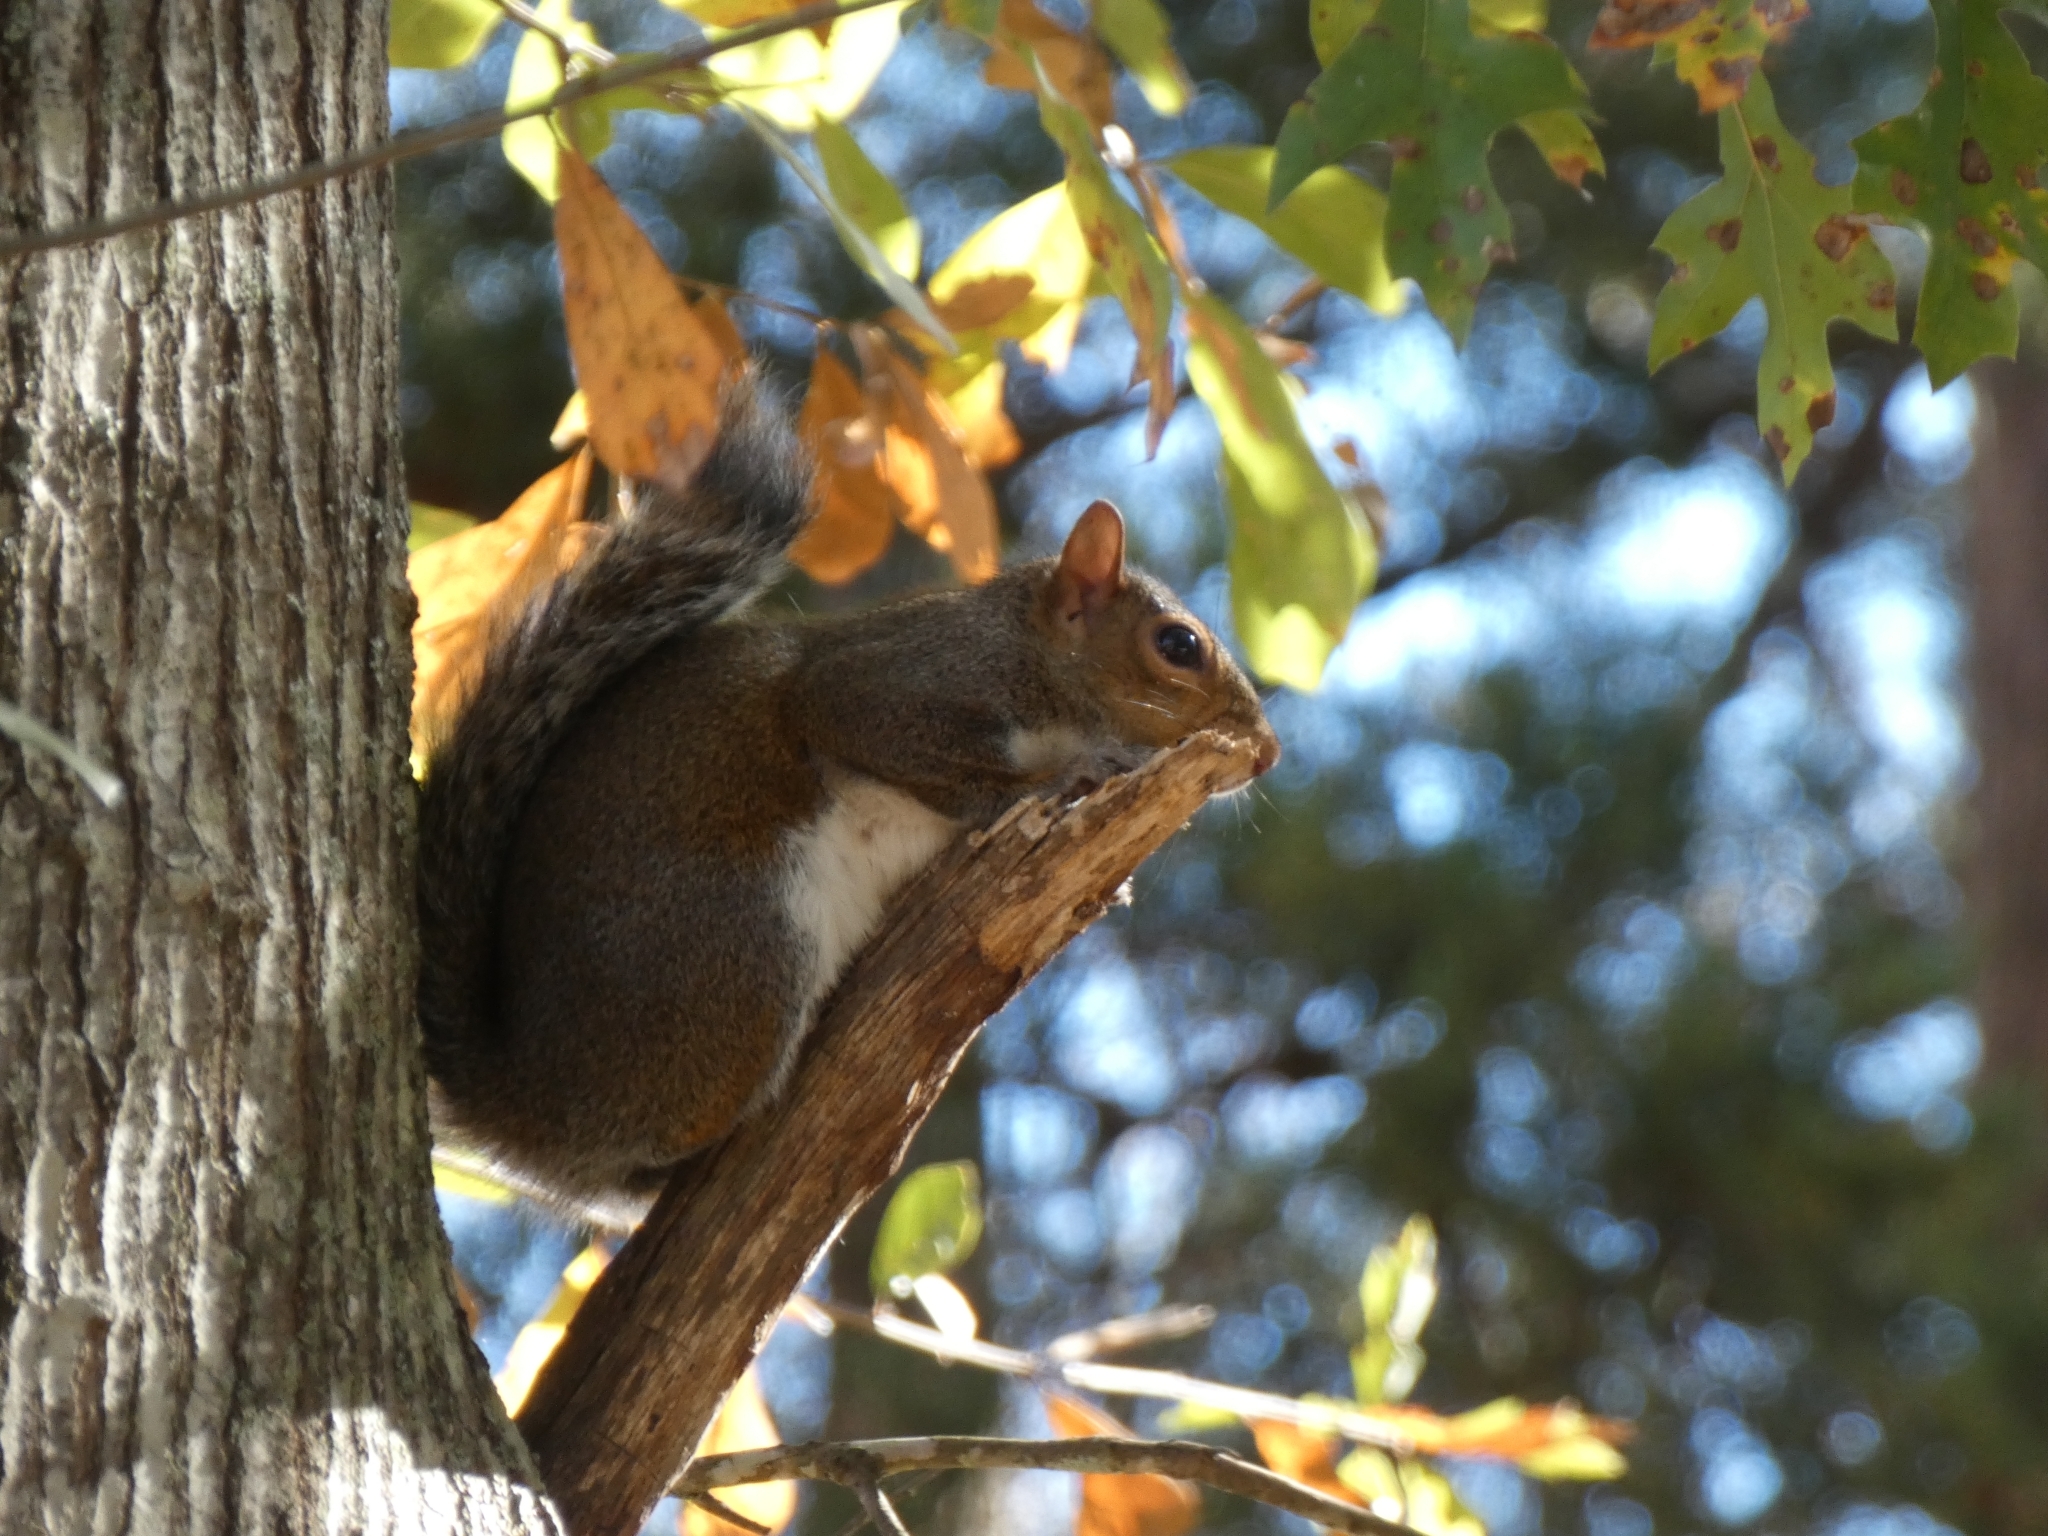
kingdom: Animalia
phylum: Chordata
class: Mammalia
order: Rodentia
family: Sciuridae
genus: Sciurus
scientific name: Sciurus carolinensis
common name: Eastern gray squirrel
